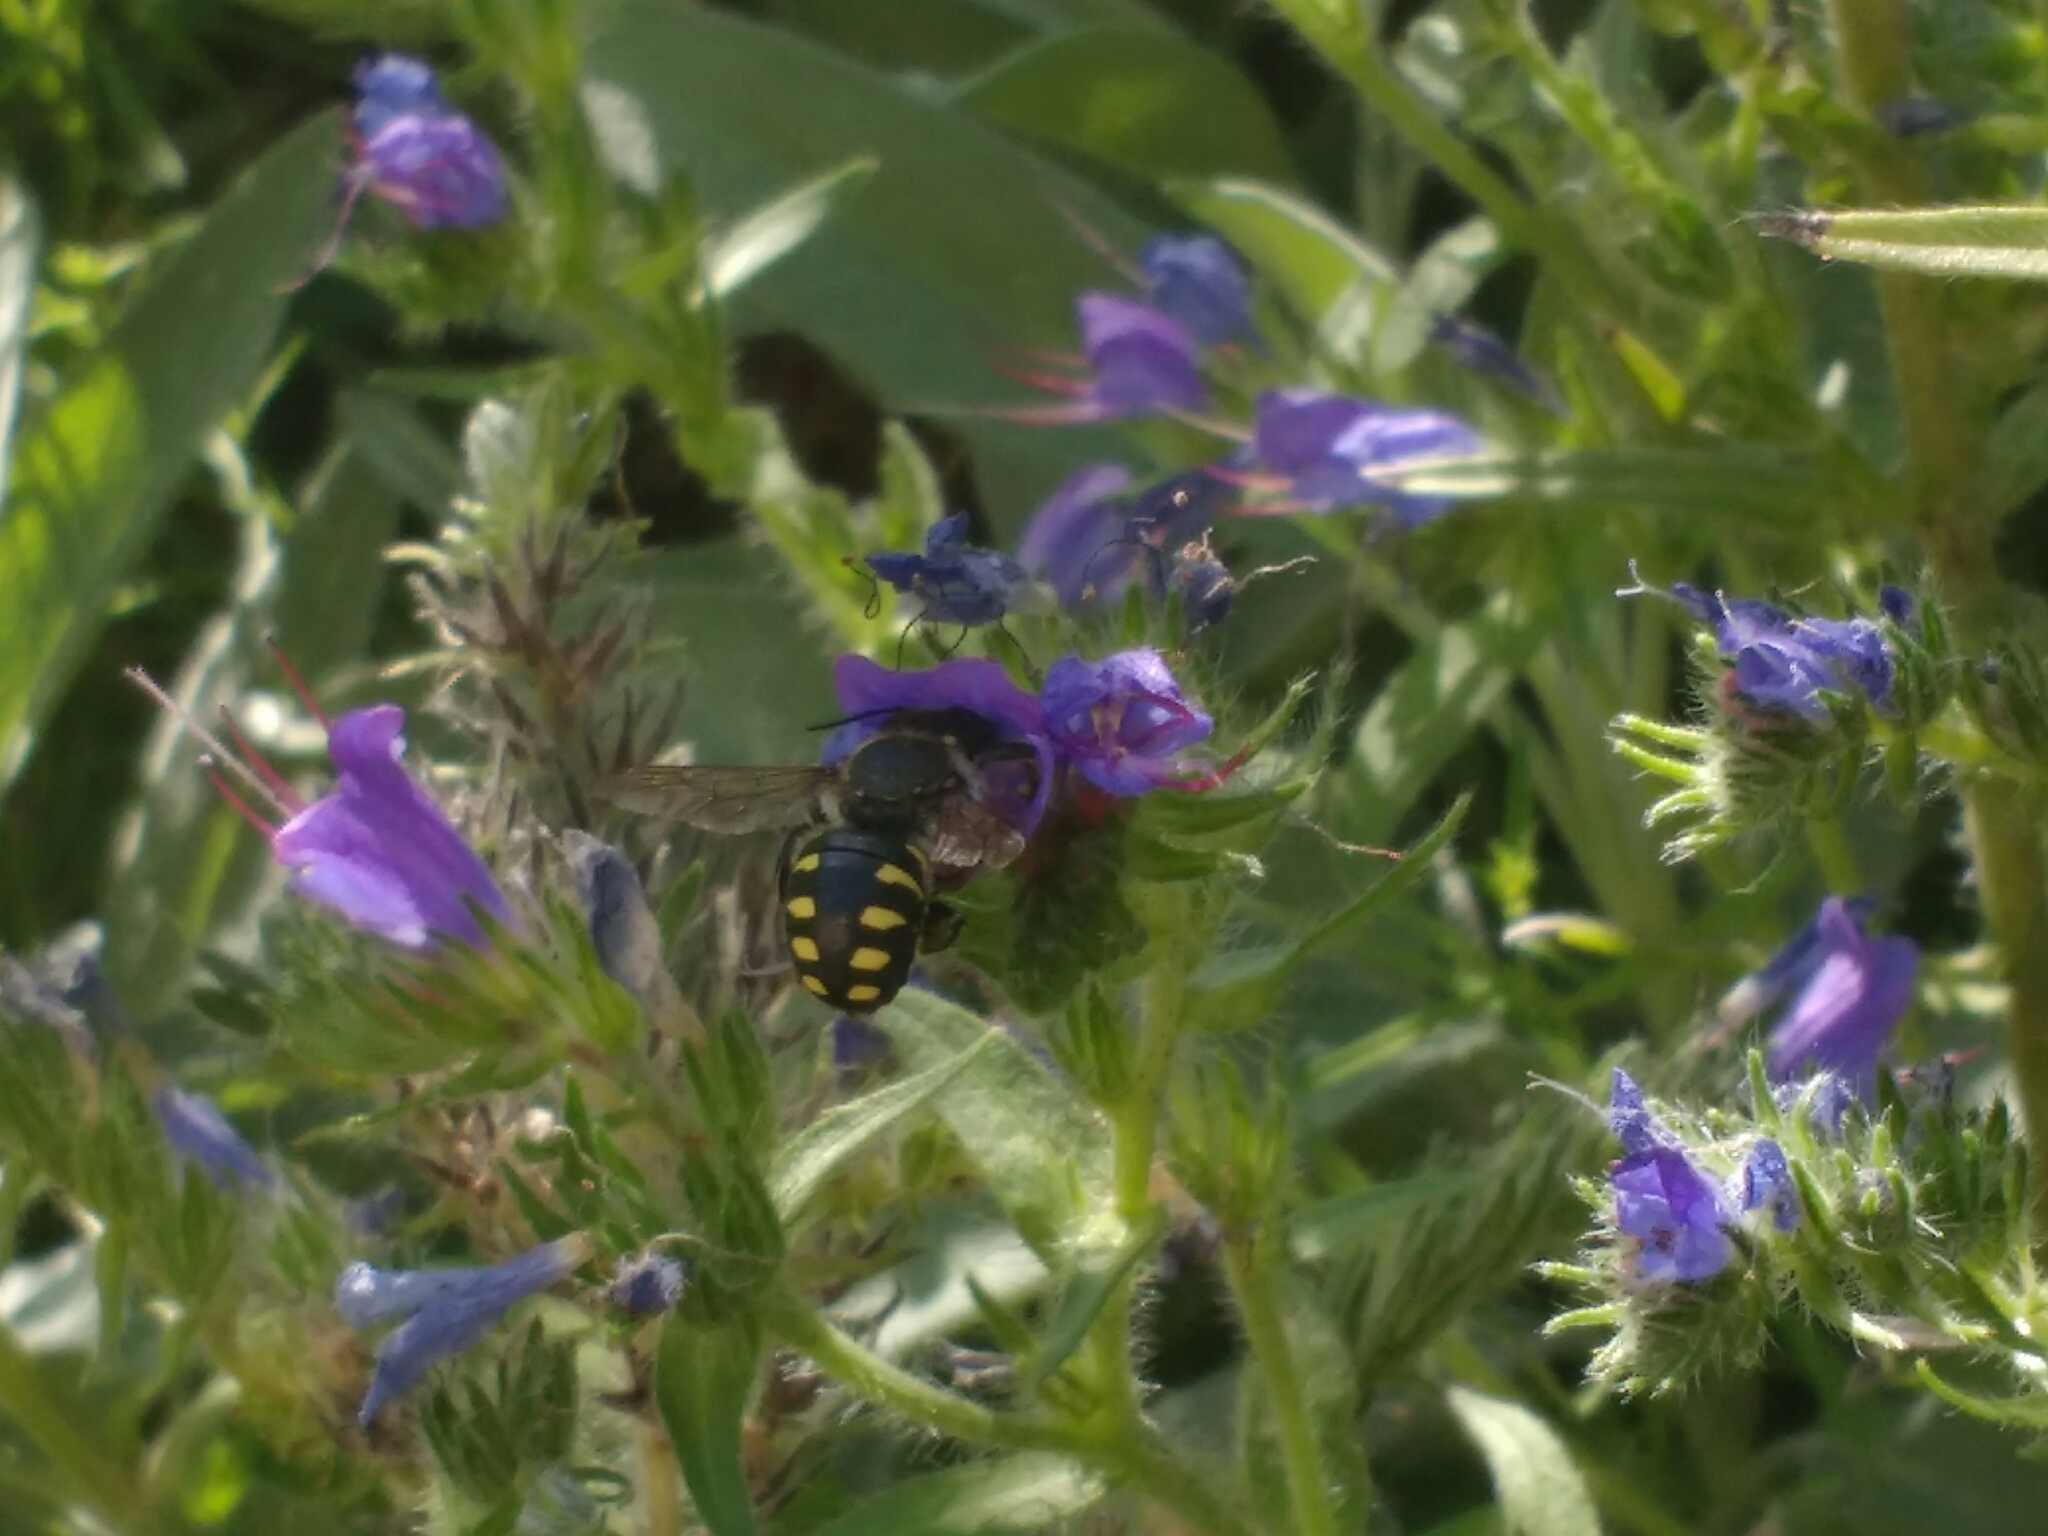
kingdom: Animalia
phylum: Arthropoda
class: Insecta
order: Hymenoptera
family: Megachilidae
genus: Anthidium
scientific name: Anthidium septemspinosum
